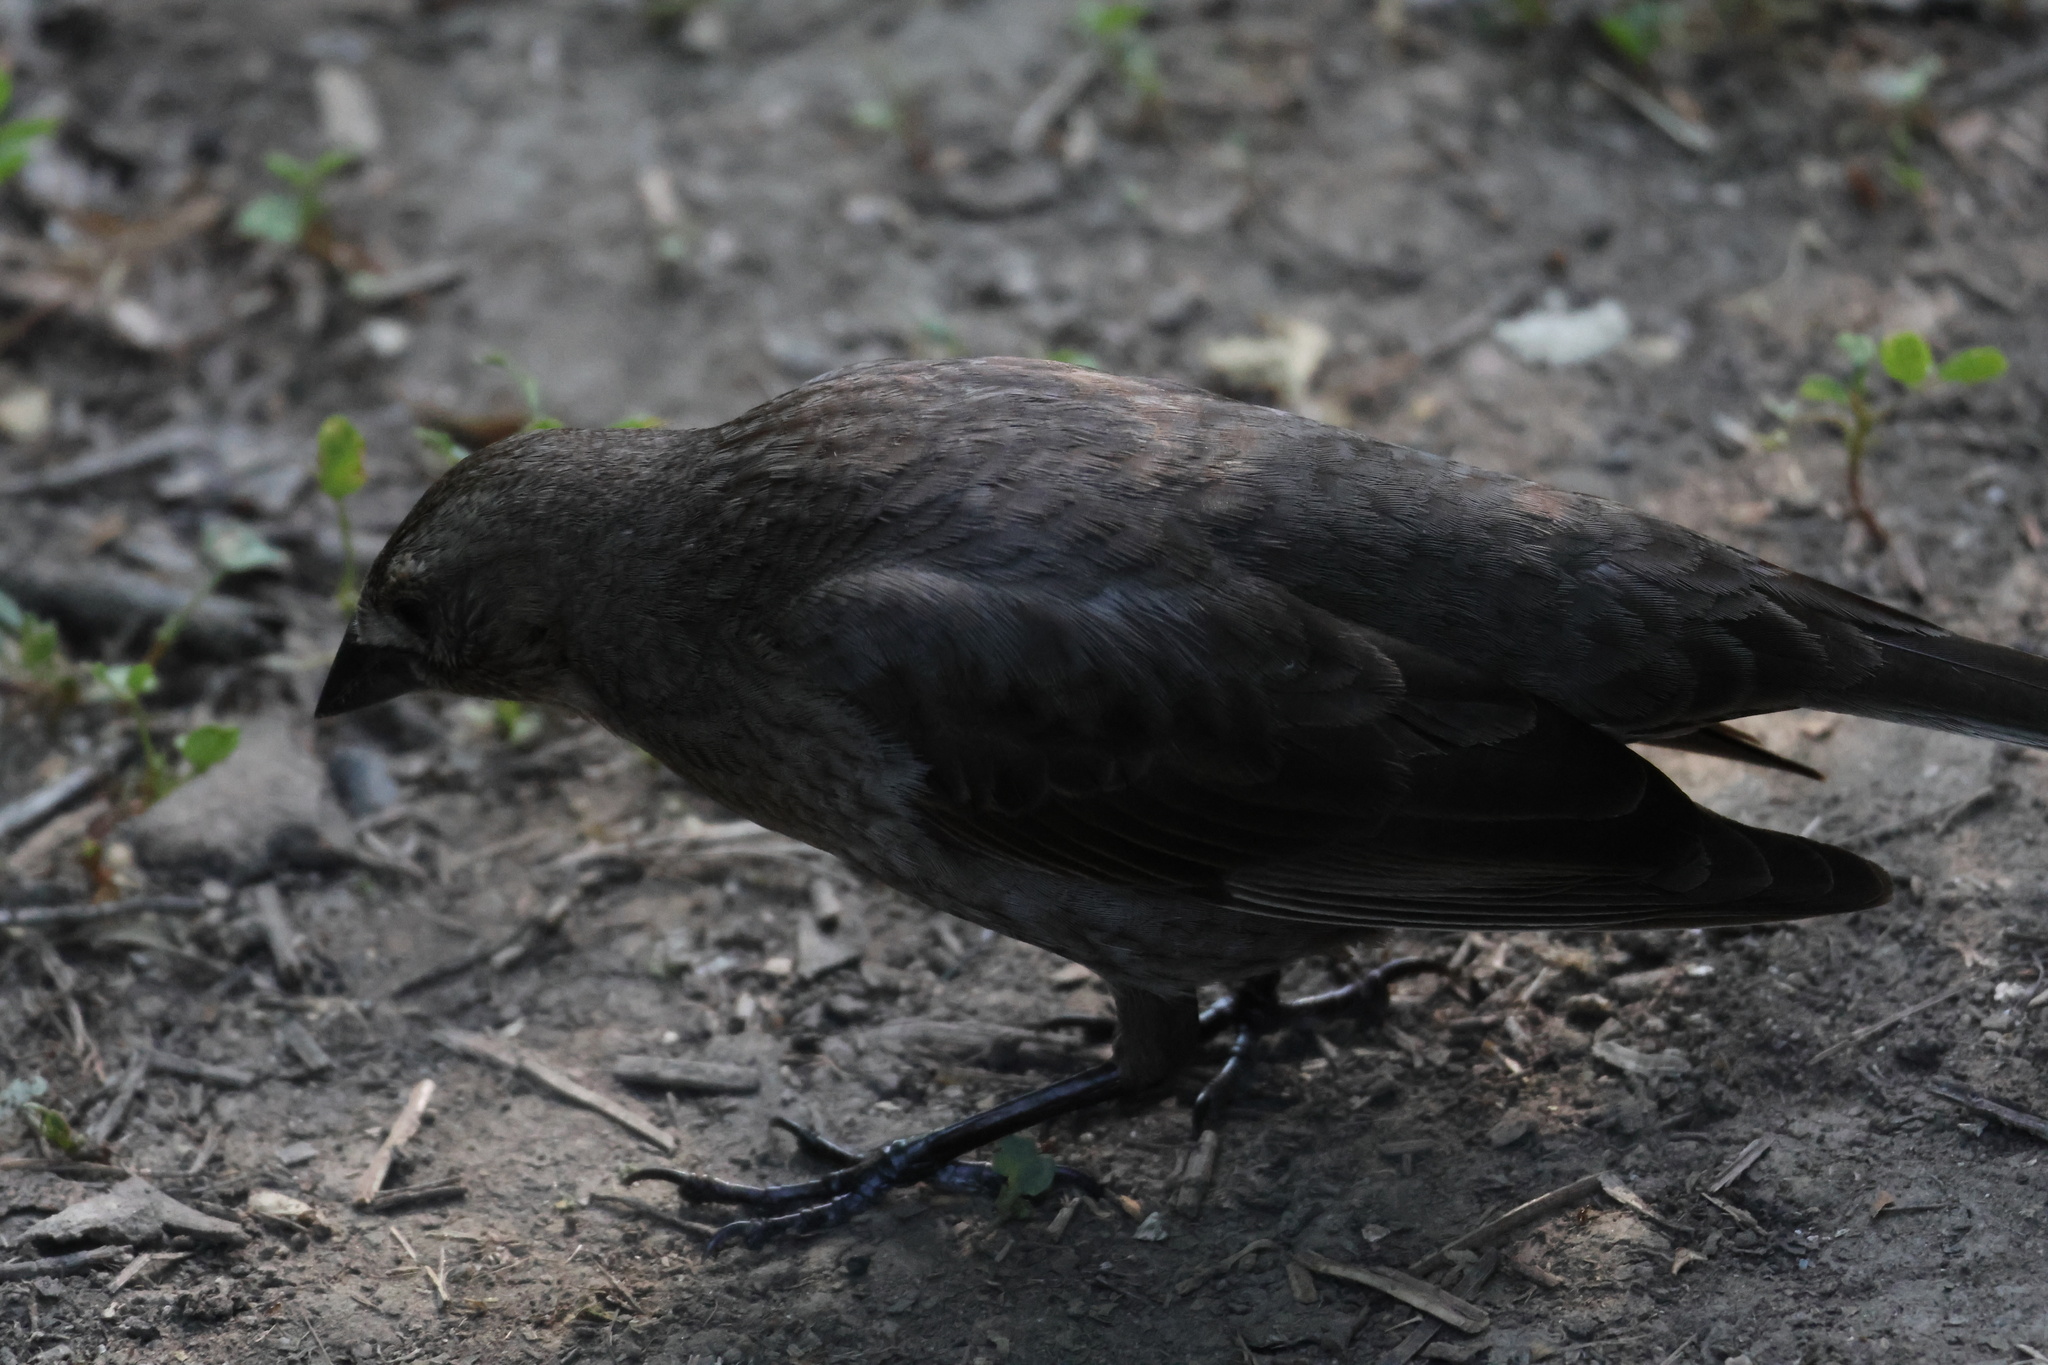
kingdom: Animalia
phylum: Chordata
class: Aves
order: Passeriformes
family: Icteridae
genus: Molothrus
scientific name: Molothrus ater
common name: Brown-headed cowbird
